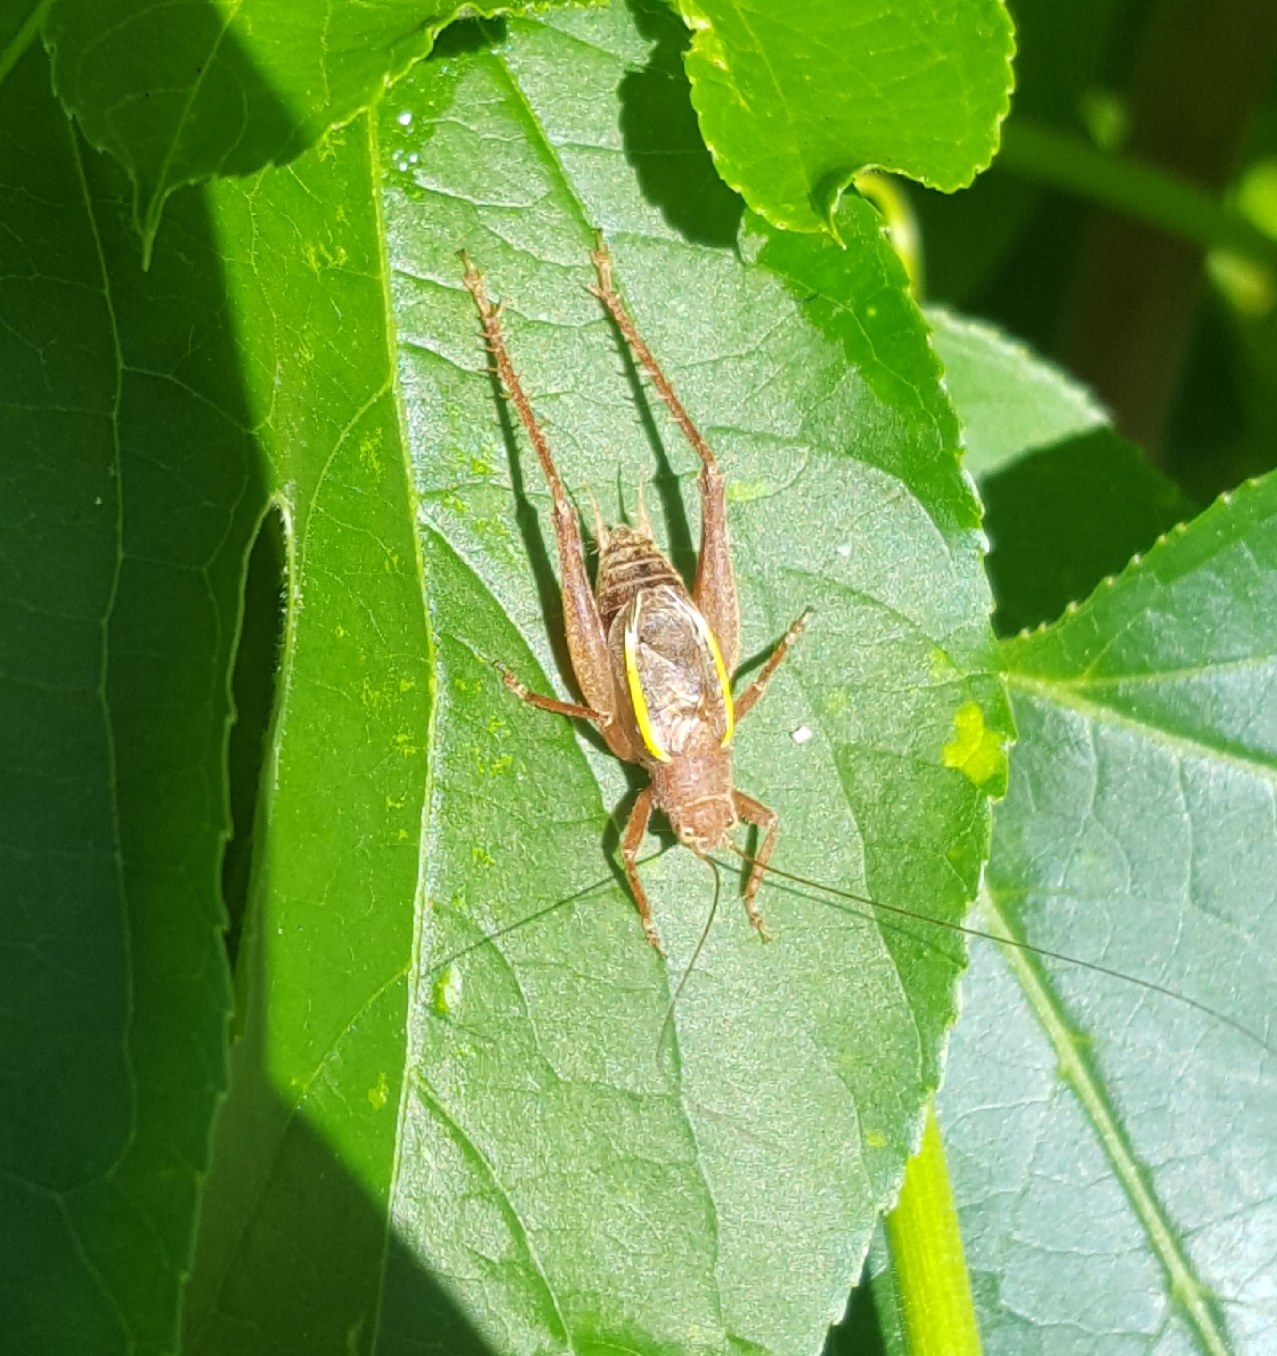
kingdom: Animalia
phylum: Arthropoda
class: Insecta
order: Orthoptera
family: Gryllidae
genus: Hapithus
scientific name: Hapithus agitator
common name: Restless bush cricket
